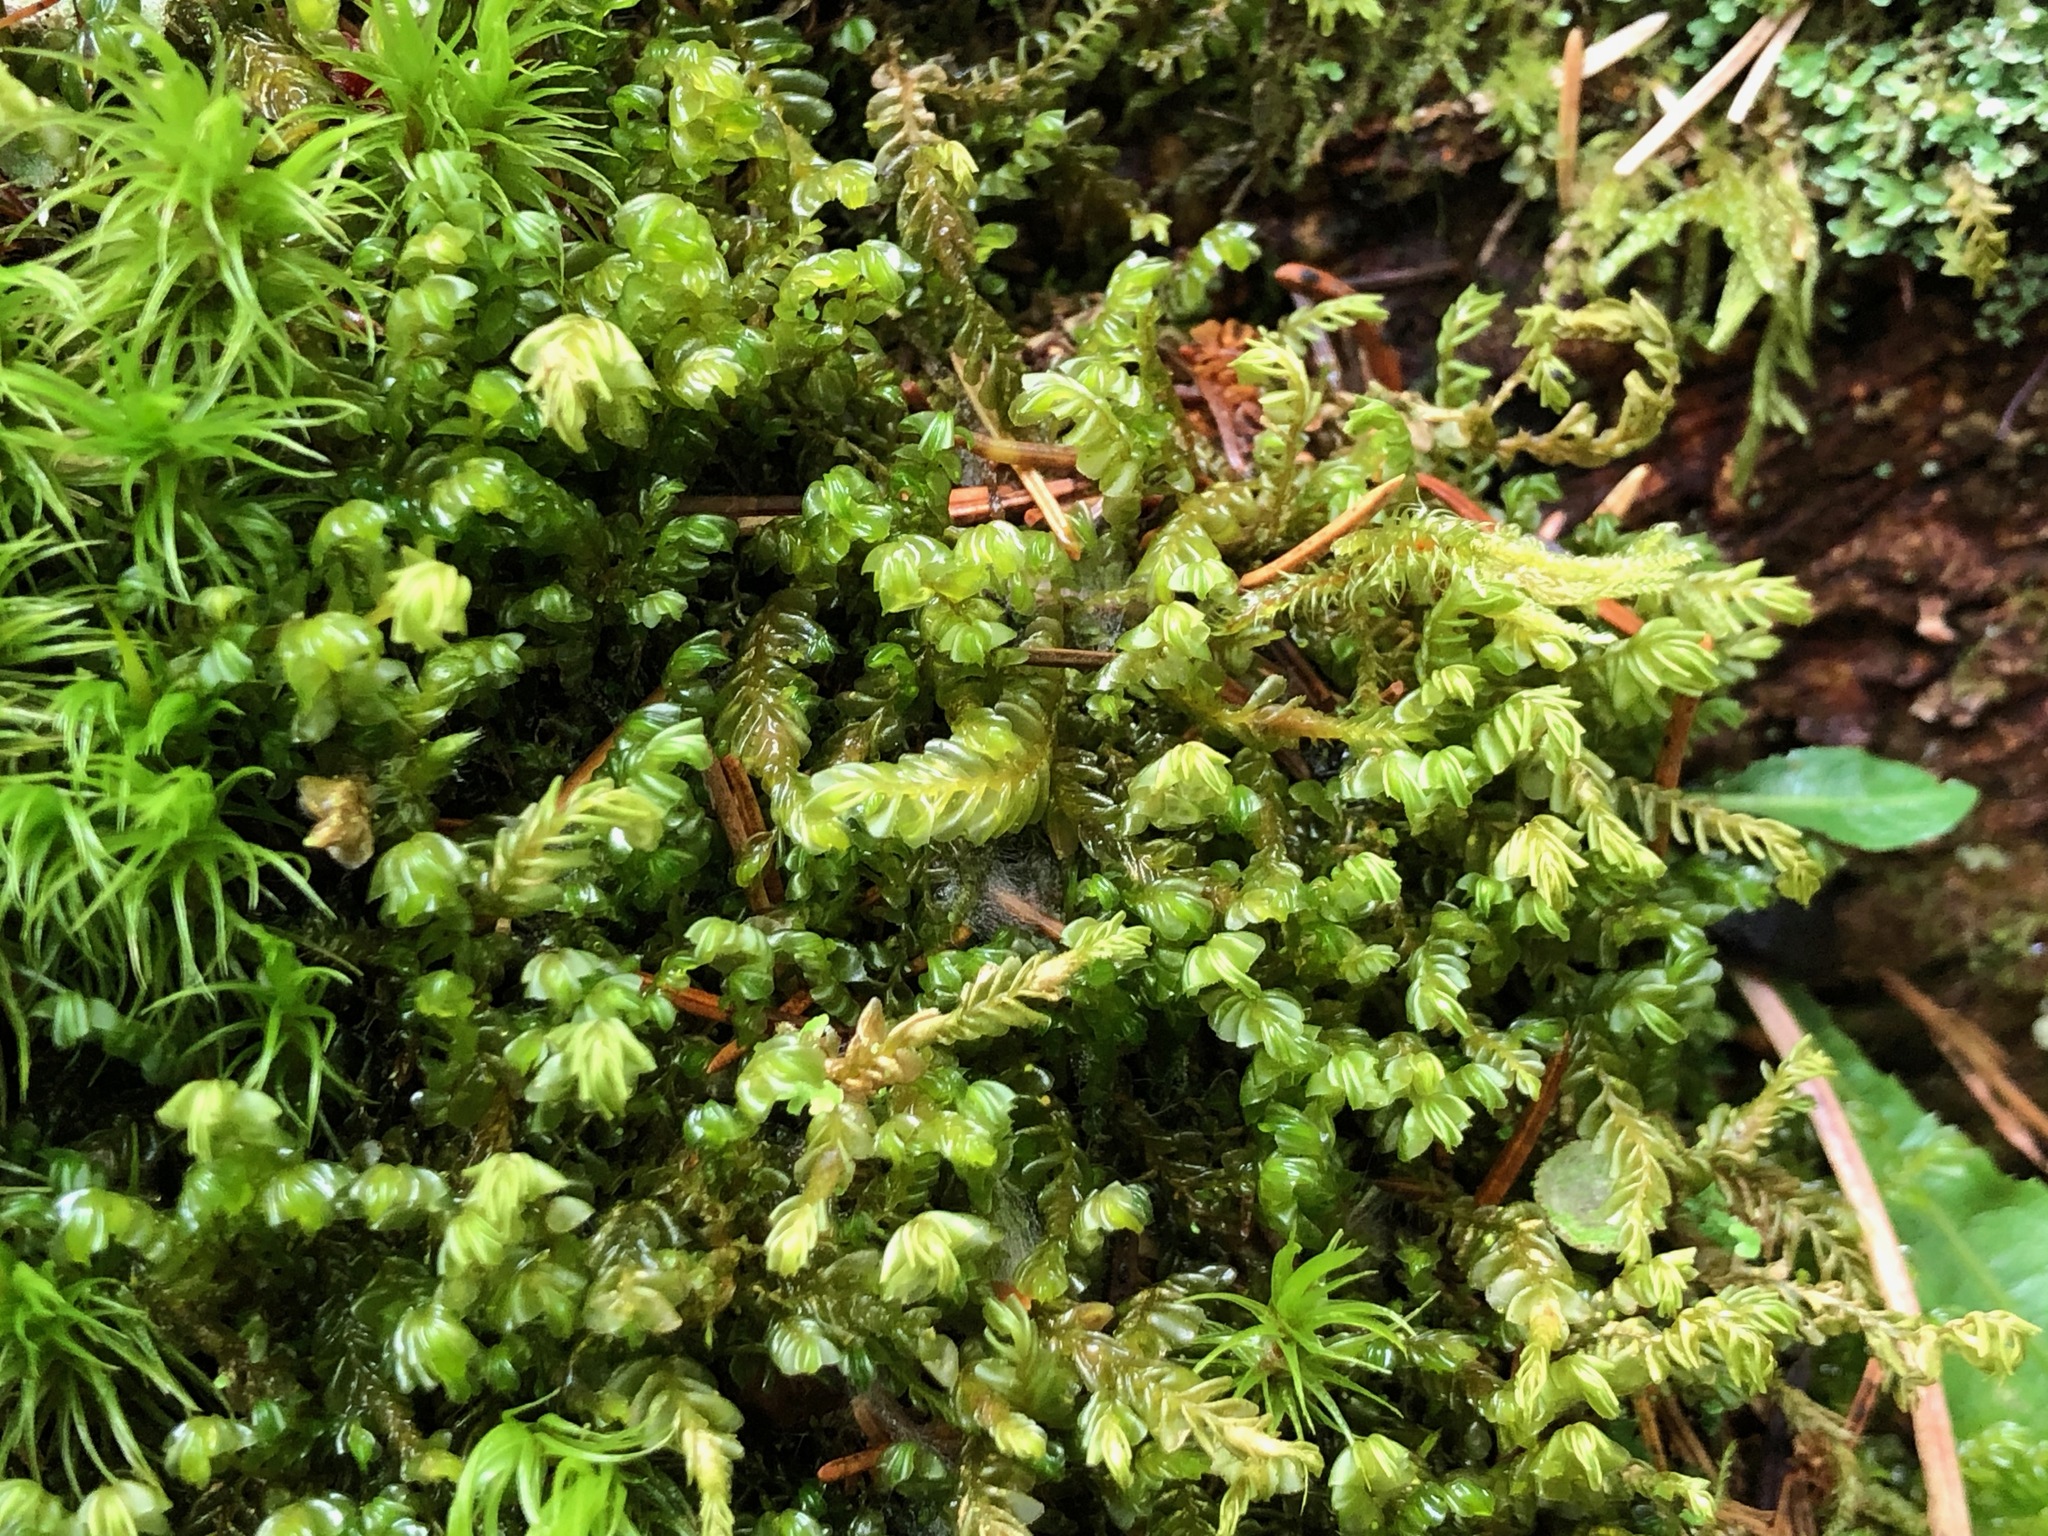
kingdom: Plantae
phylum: Marchantiophyta
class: Jungermanniopsida
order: Jungermanniales
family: Plagiochilaceae
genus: Plagiochila
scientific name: Plagiochila porelloides
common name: Lesser featherwort
